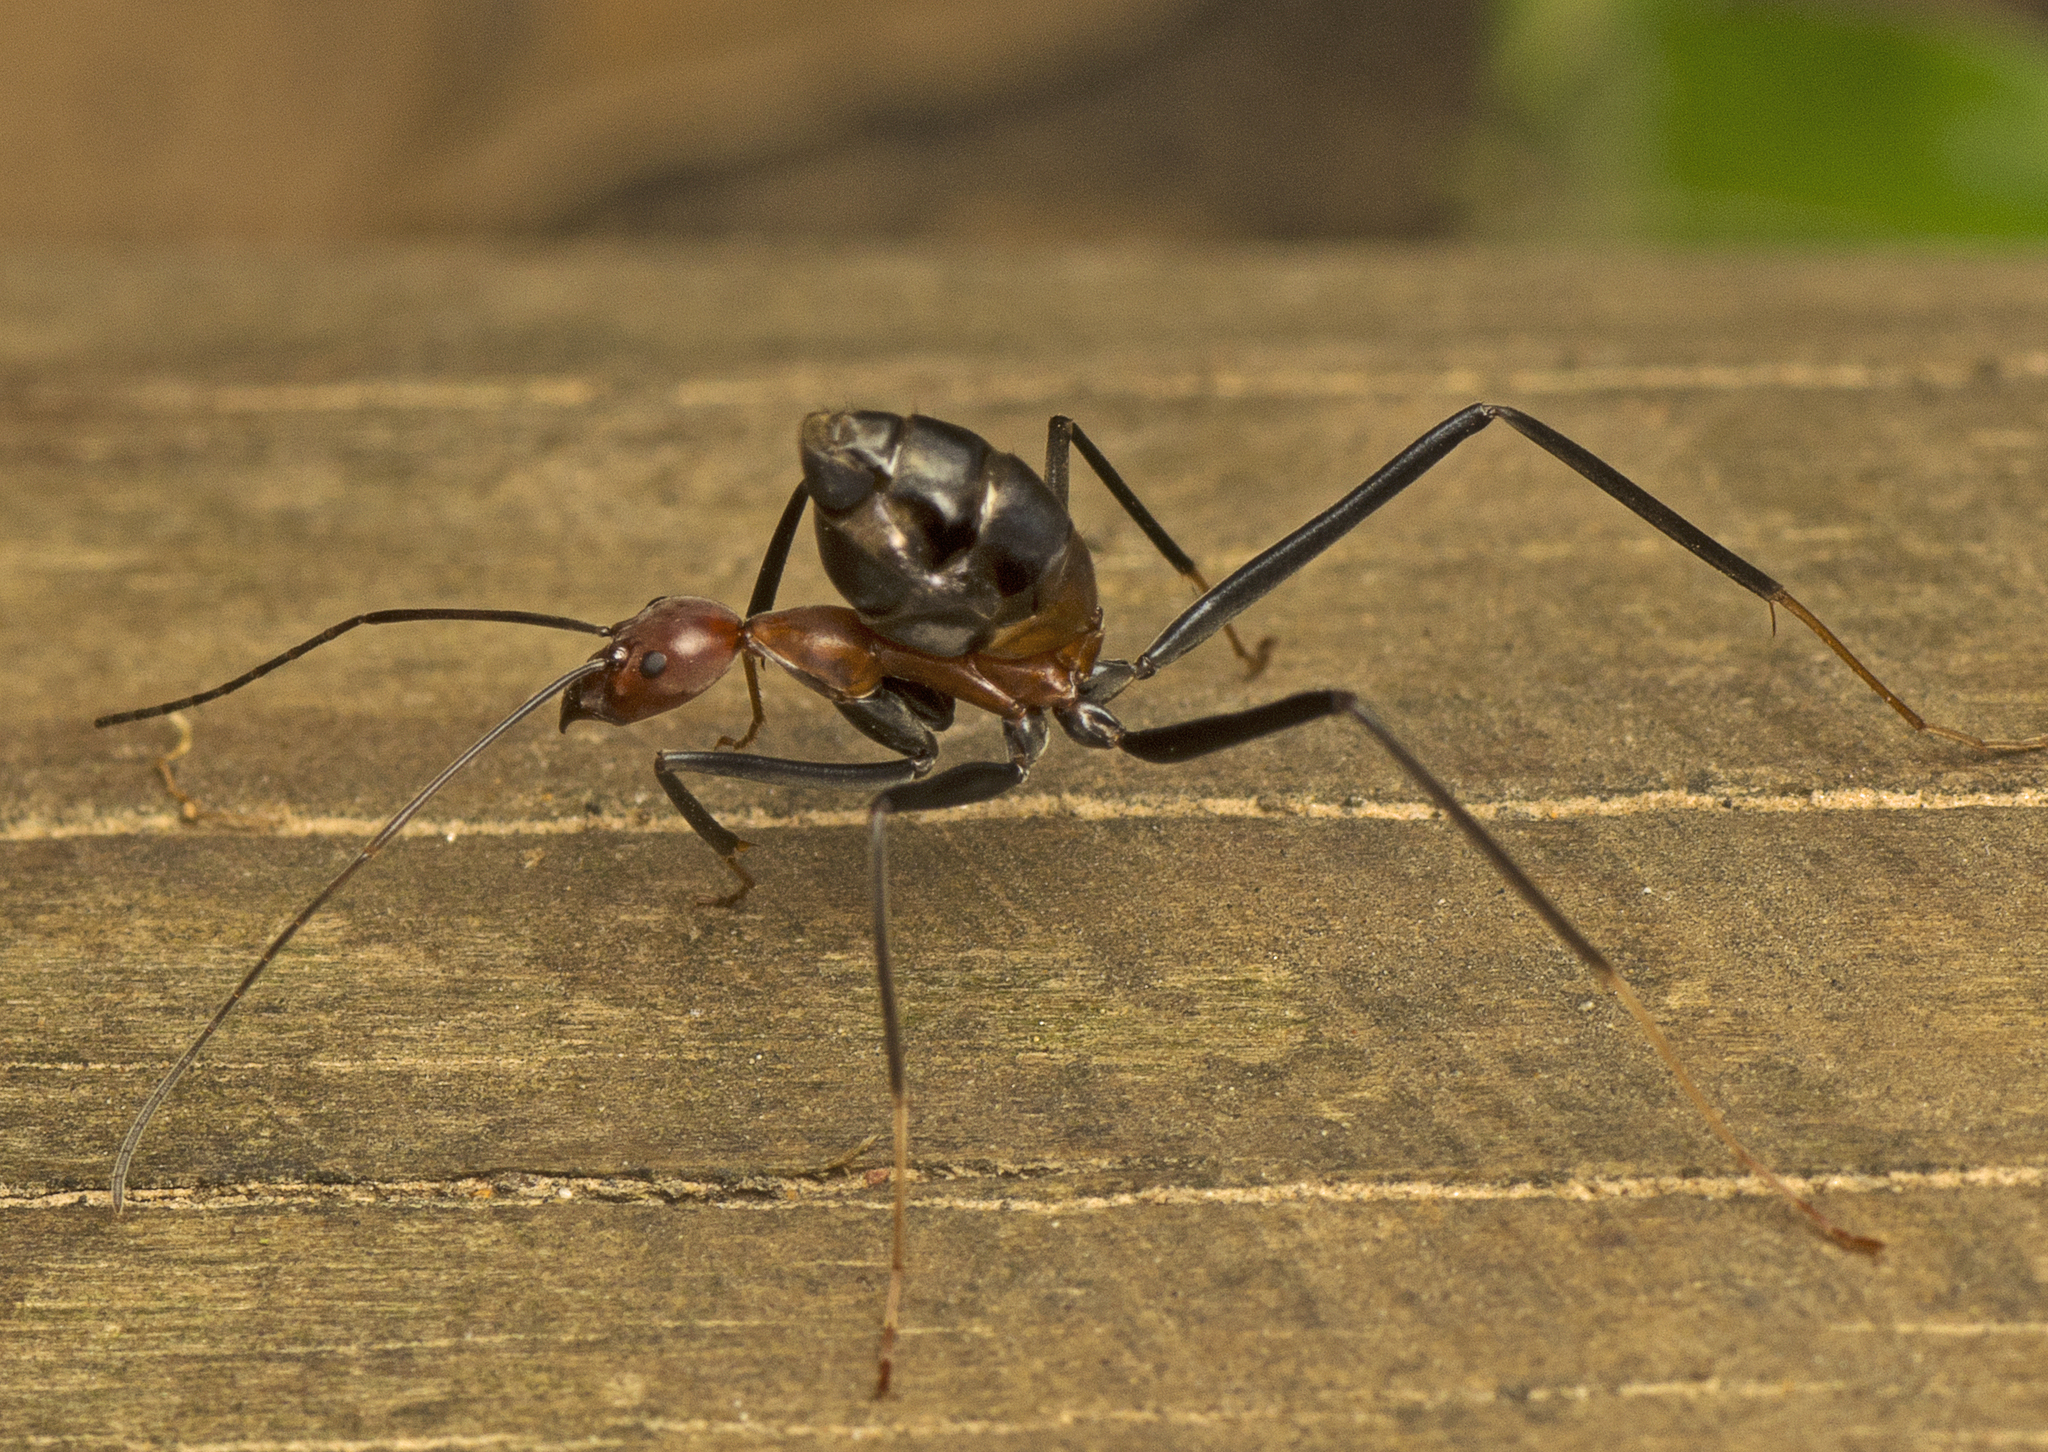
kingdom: Animalia
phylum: Arthropoda
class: Insecta
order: Hymenoptera
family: Formicidae
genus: Leptomyrmex
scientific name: Leptomyrmex rufithorax
